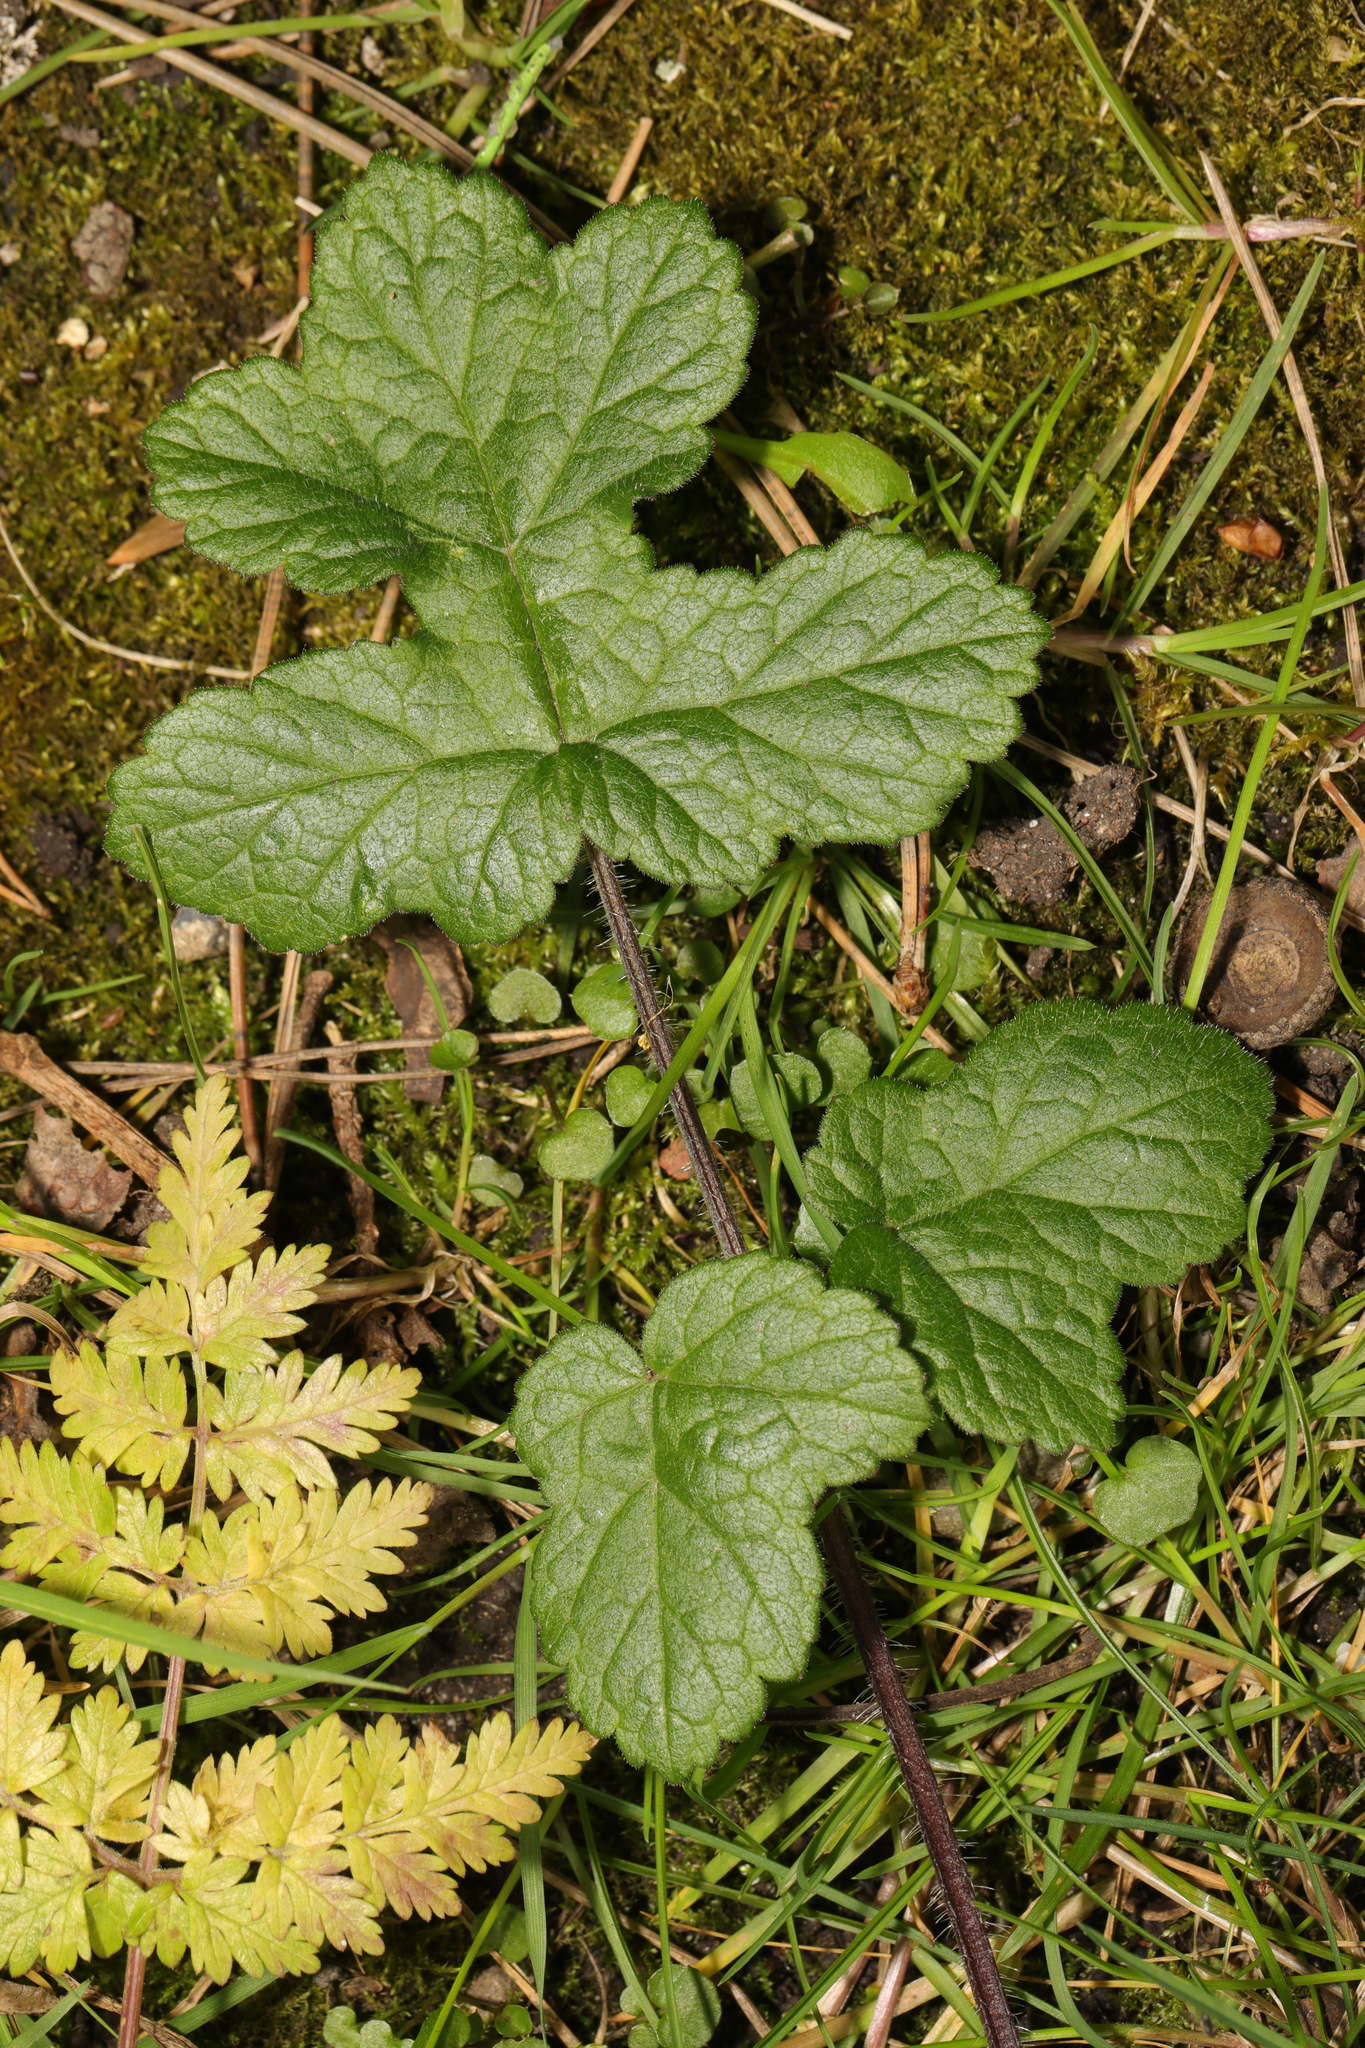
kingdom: Plantae
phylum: Tracheophyta
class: Magnoliopsida
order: Apiales
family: Apiaceae
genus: Heracleum
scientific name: Heracleum sphondylium
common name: Hogweed
